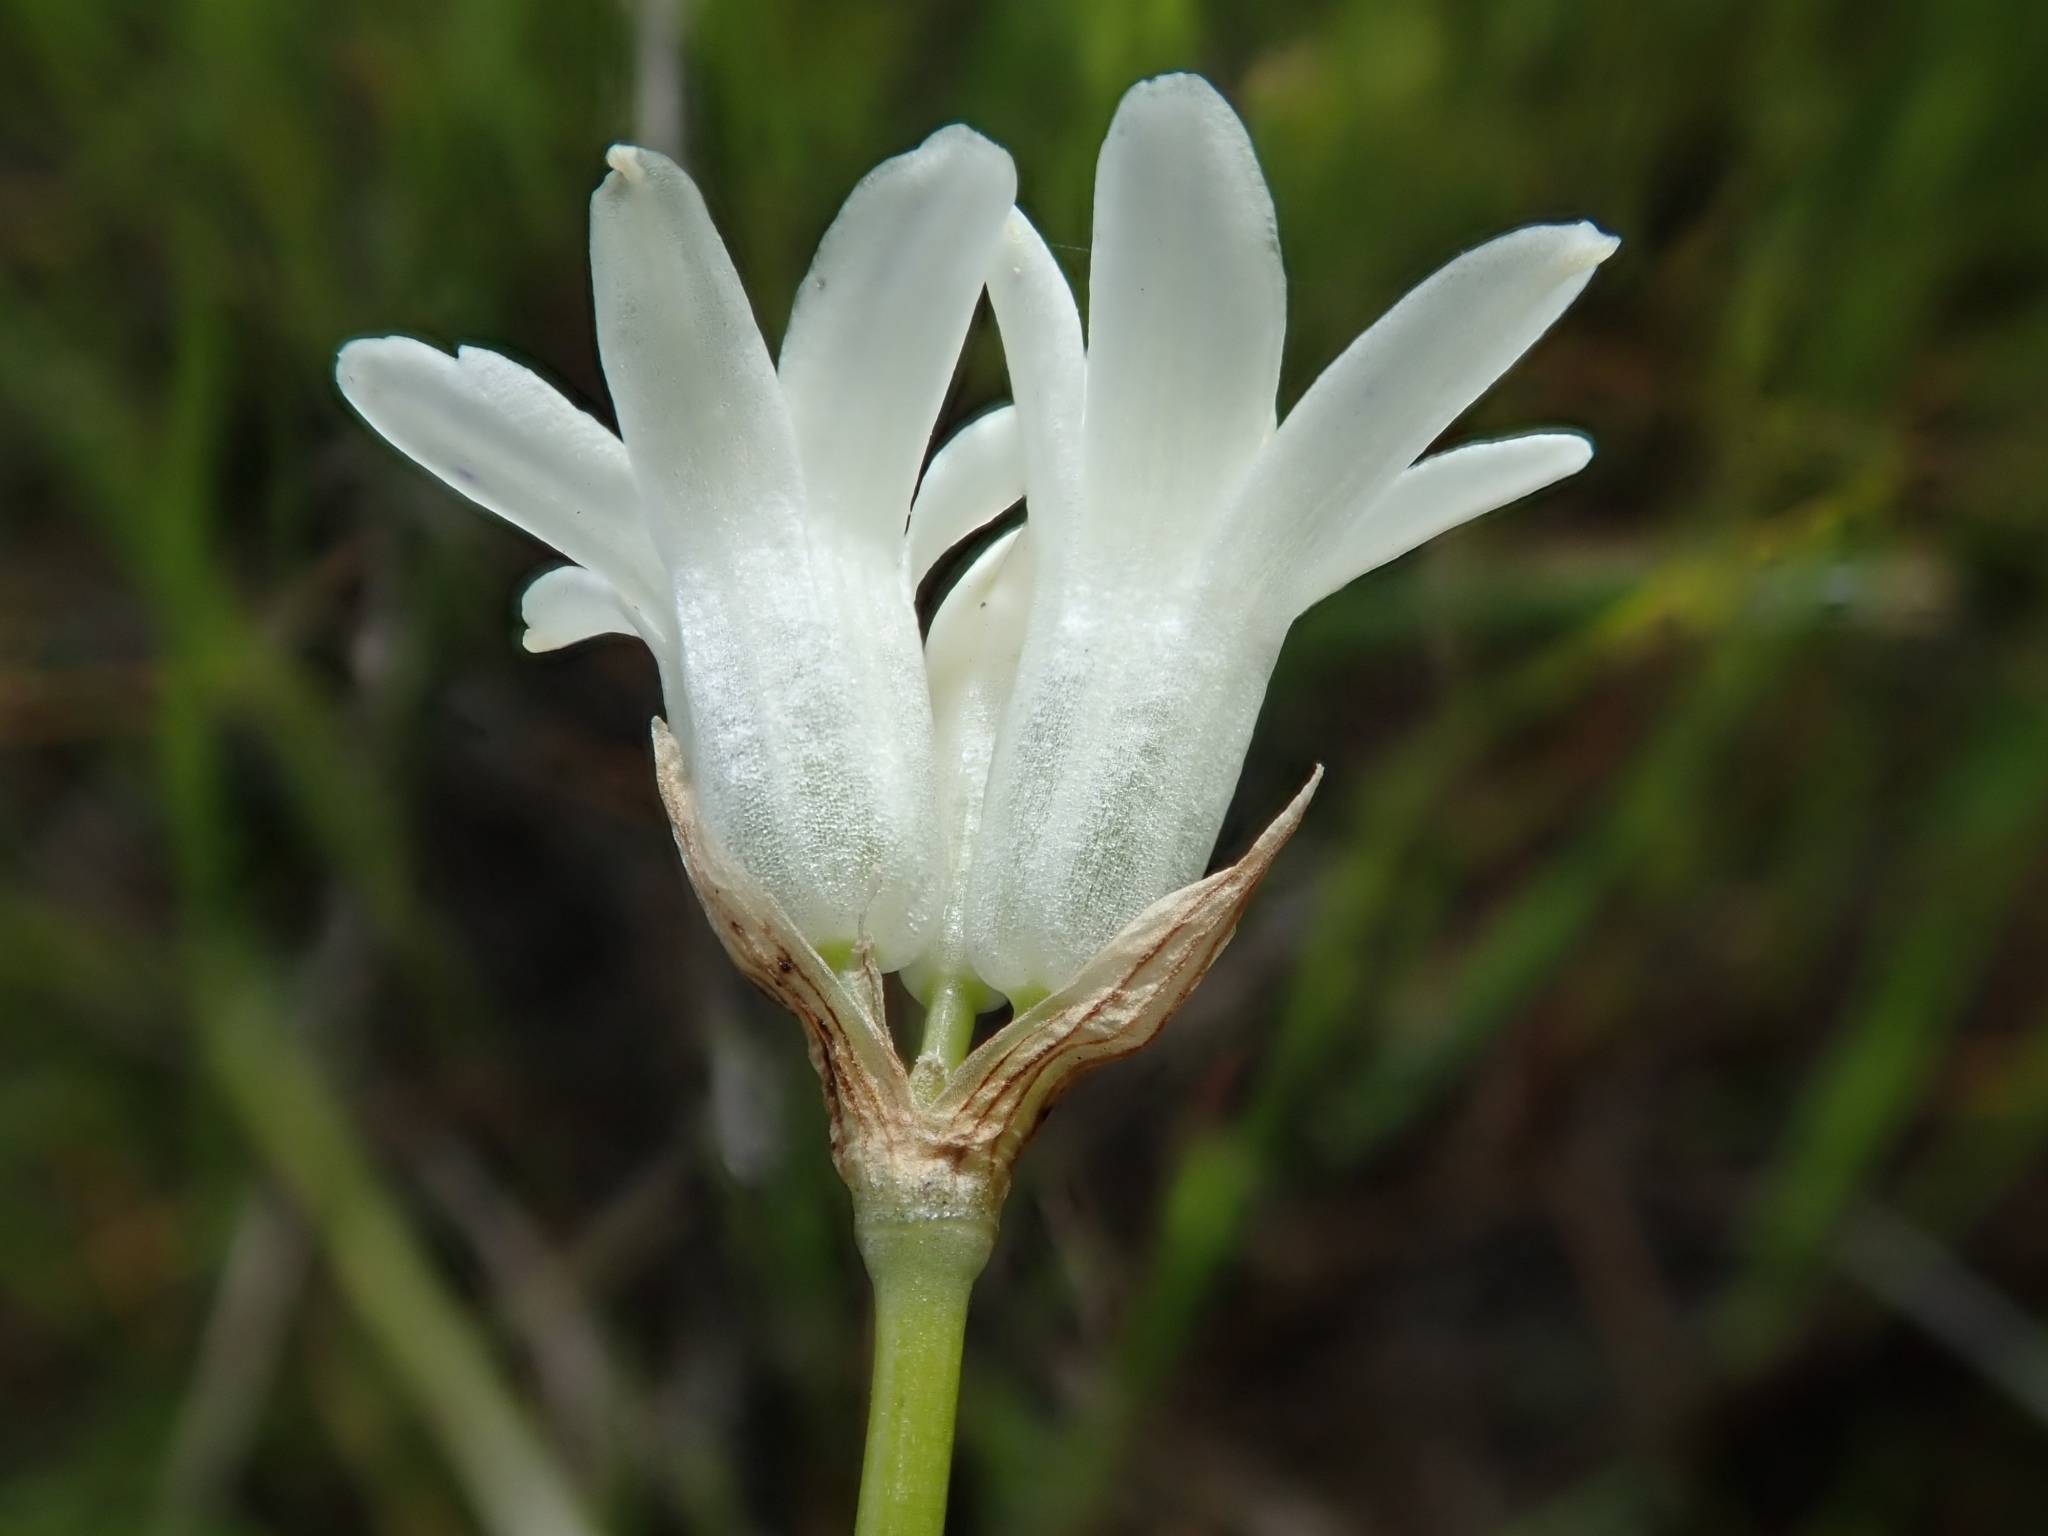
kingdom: Plantae
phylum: Tracheophyta
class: Liliopsida
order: Asparagales
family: Asparagaceae
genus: Dipterostemon
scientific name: Dipterostemon capitatus
